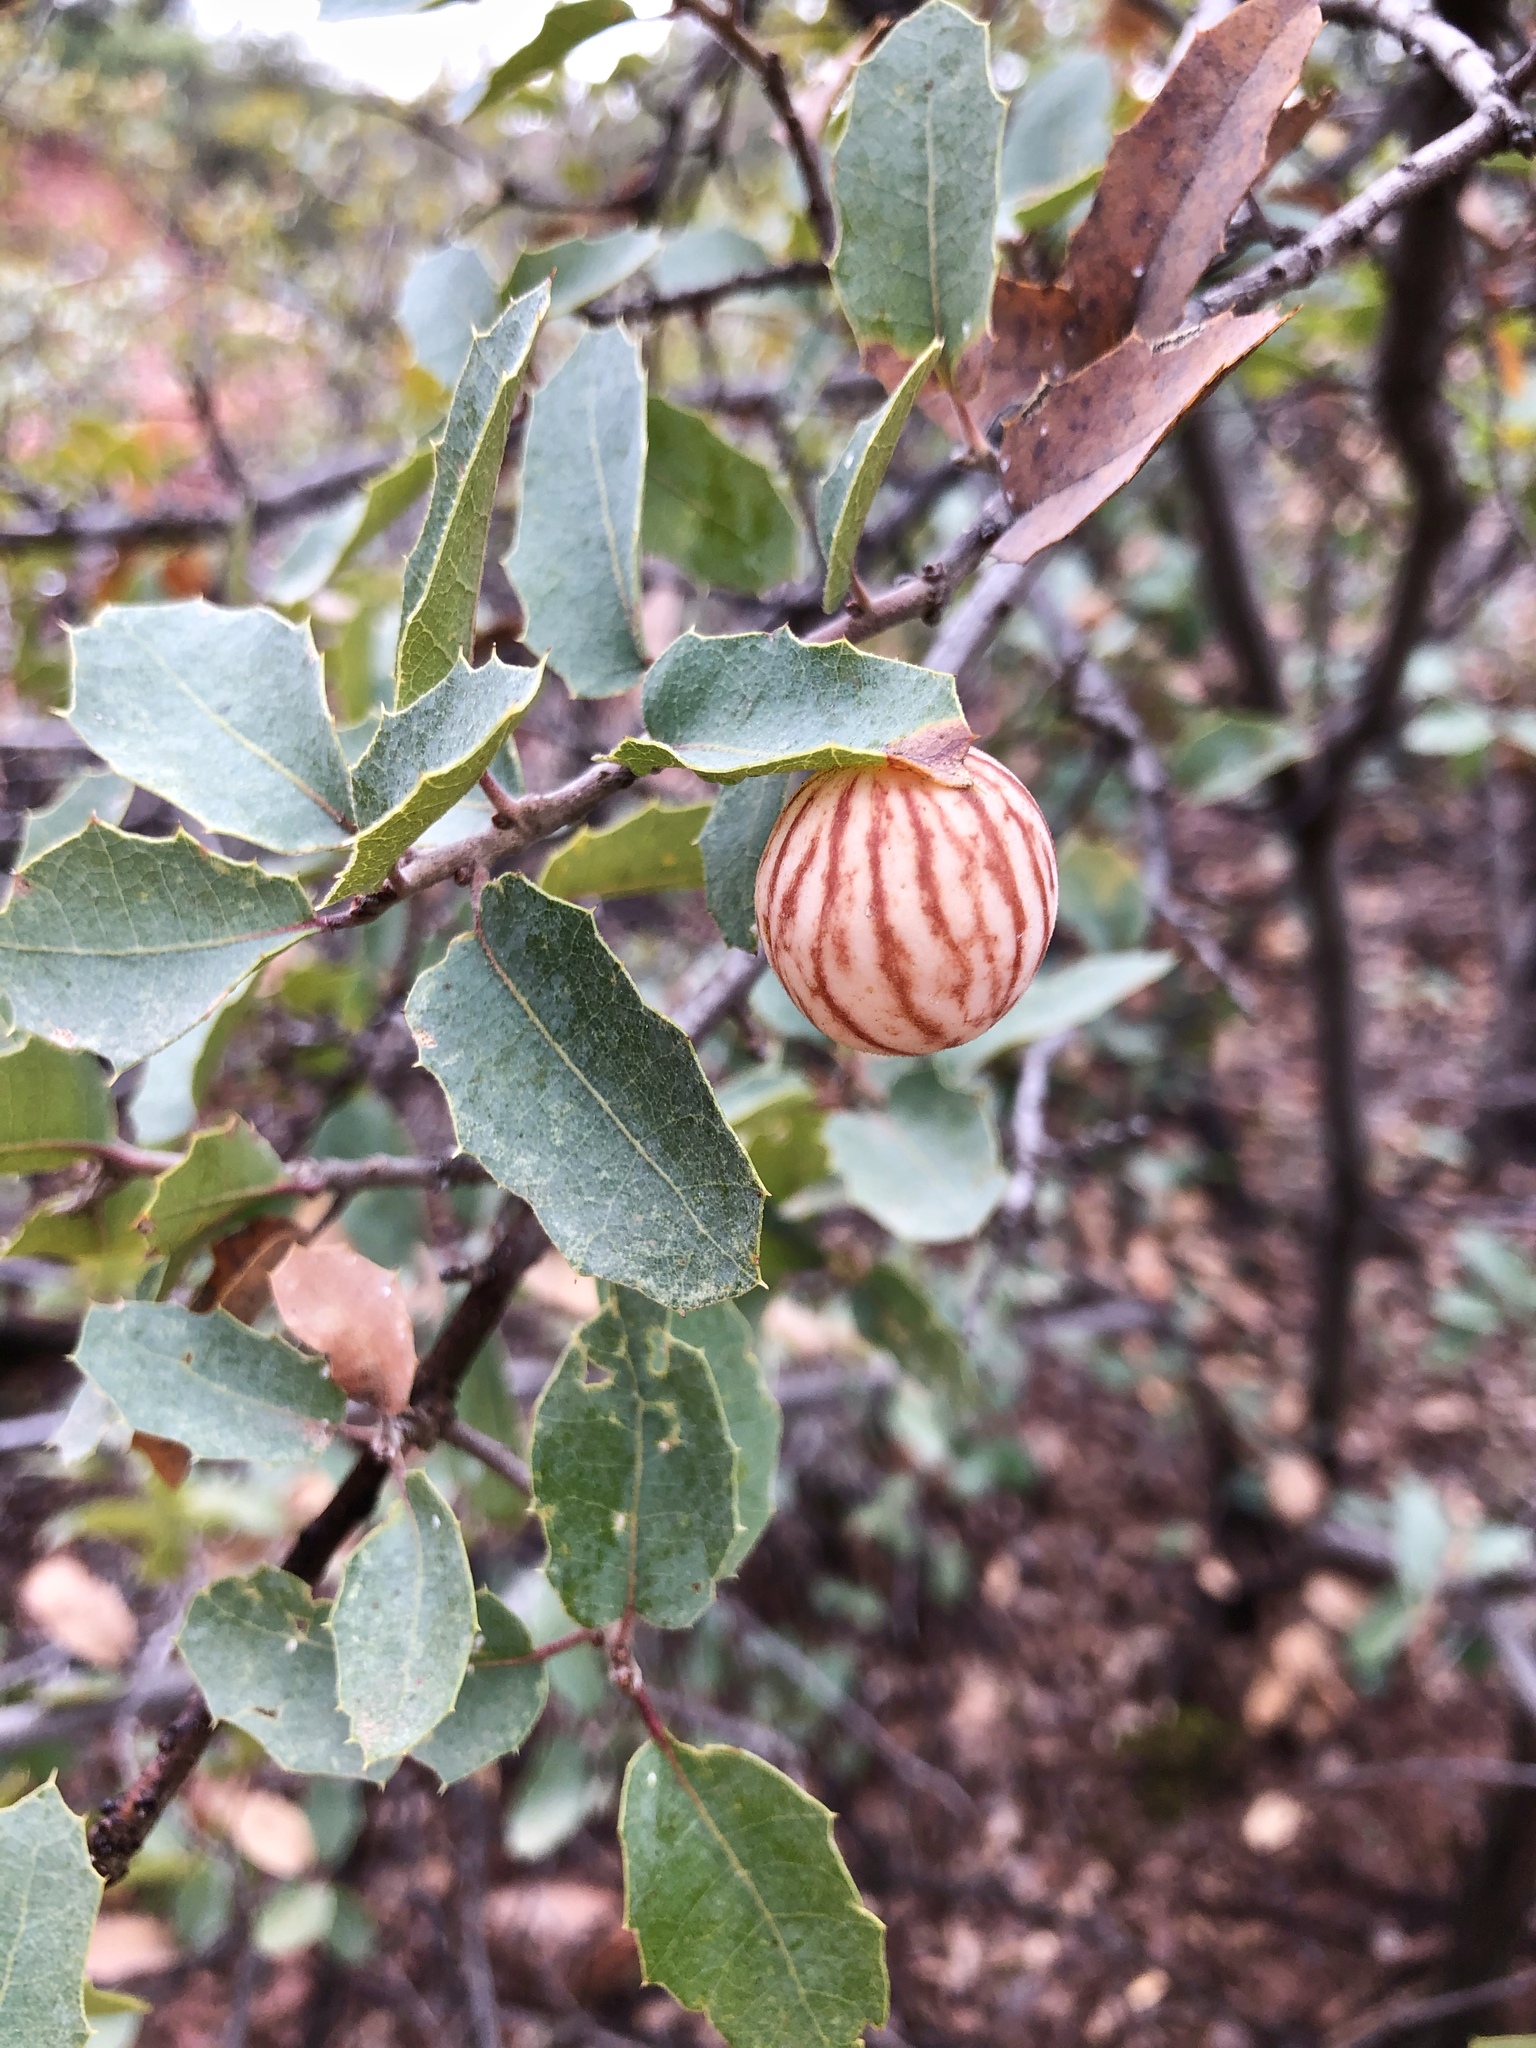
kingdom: Animalia
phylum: Arthropoda
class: Insecta
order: Hymenoptera
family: Cynipidae
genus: Atrusca
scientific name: Atrusca
